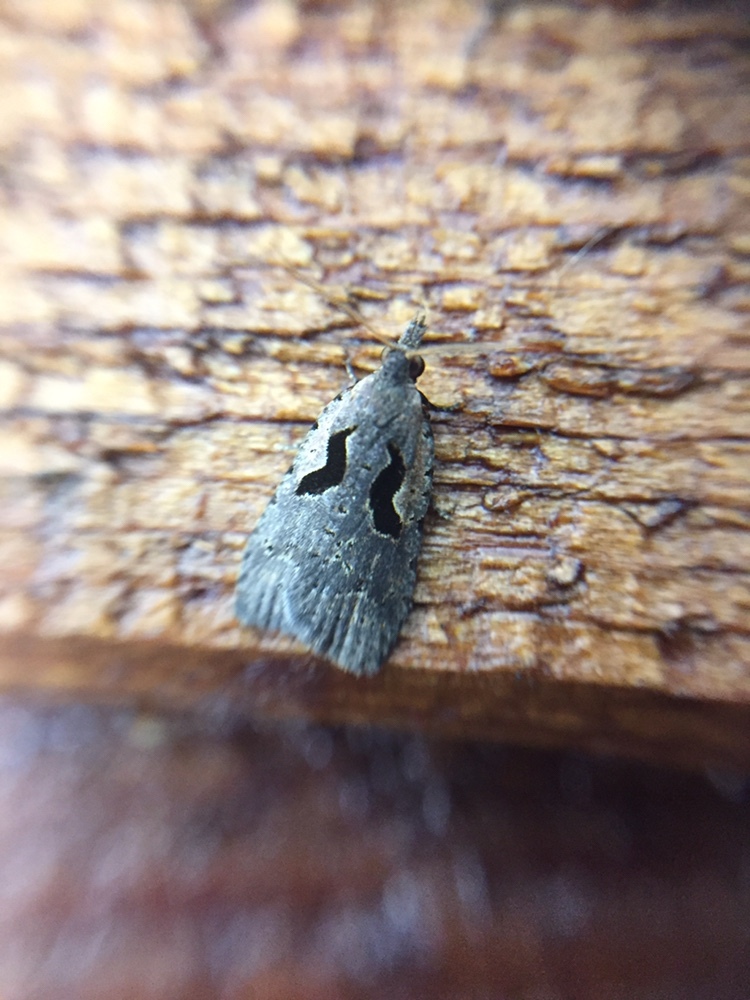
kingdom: Animalia
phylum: Arthropoda
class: Insecta
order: Lepidoptera
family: Tortricidae
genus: Cnephasia
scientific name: Cnephasia jactatana
